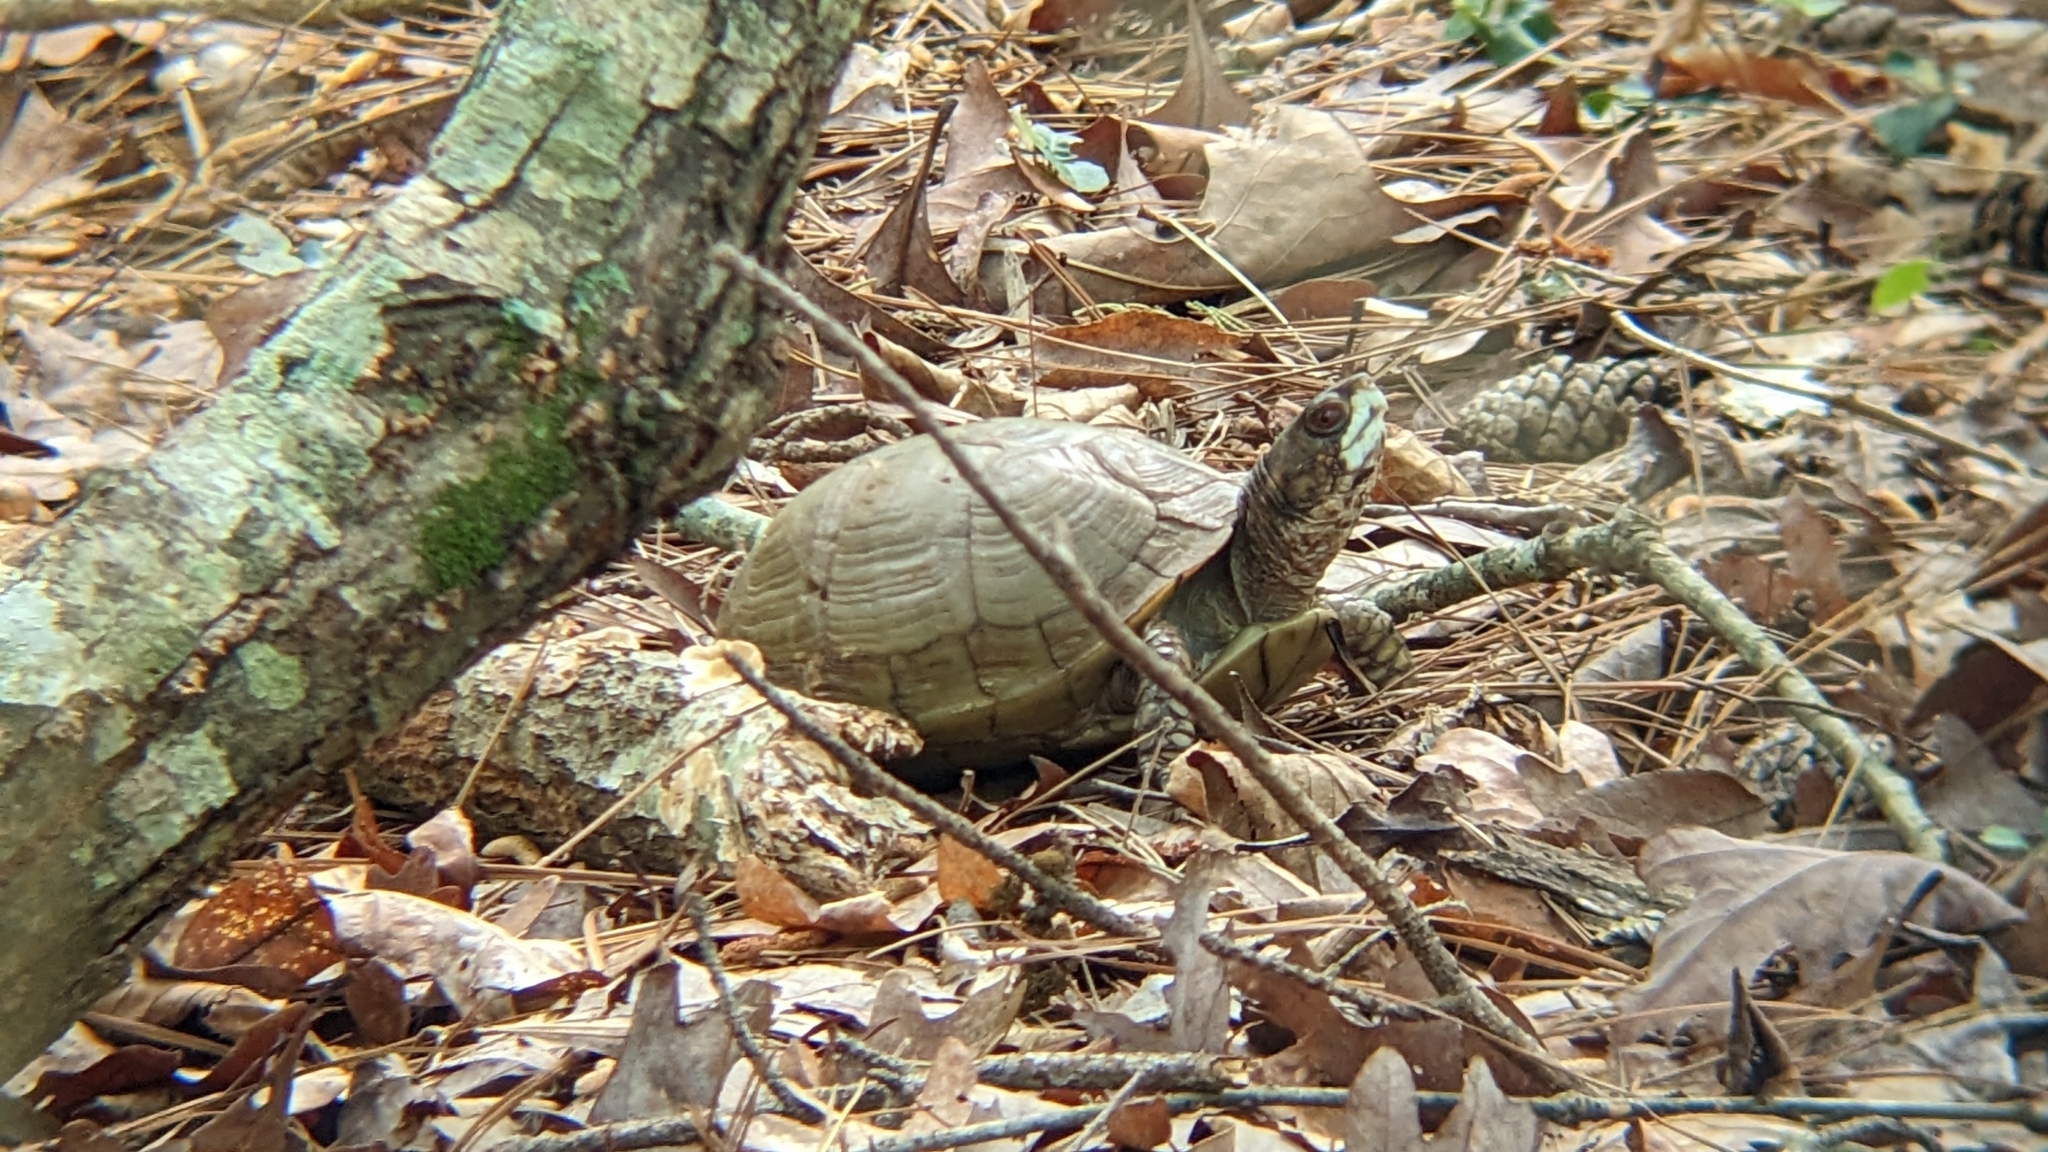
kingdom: Animalia
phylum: Chordata
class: Testudines
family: Emydidae
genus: Terrapene
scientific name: Terrapene carolina
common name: Common box turtle
